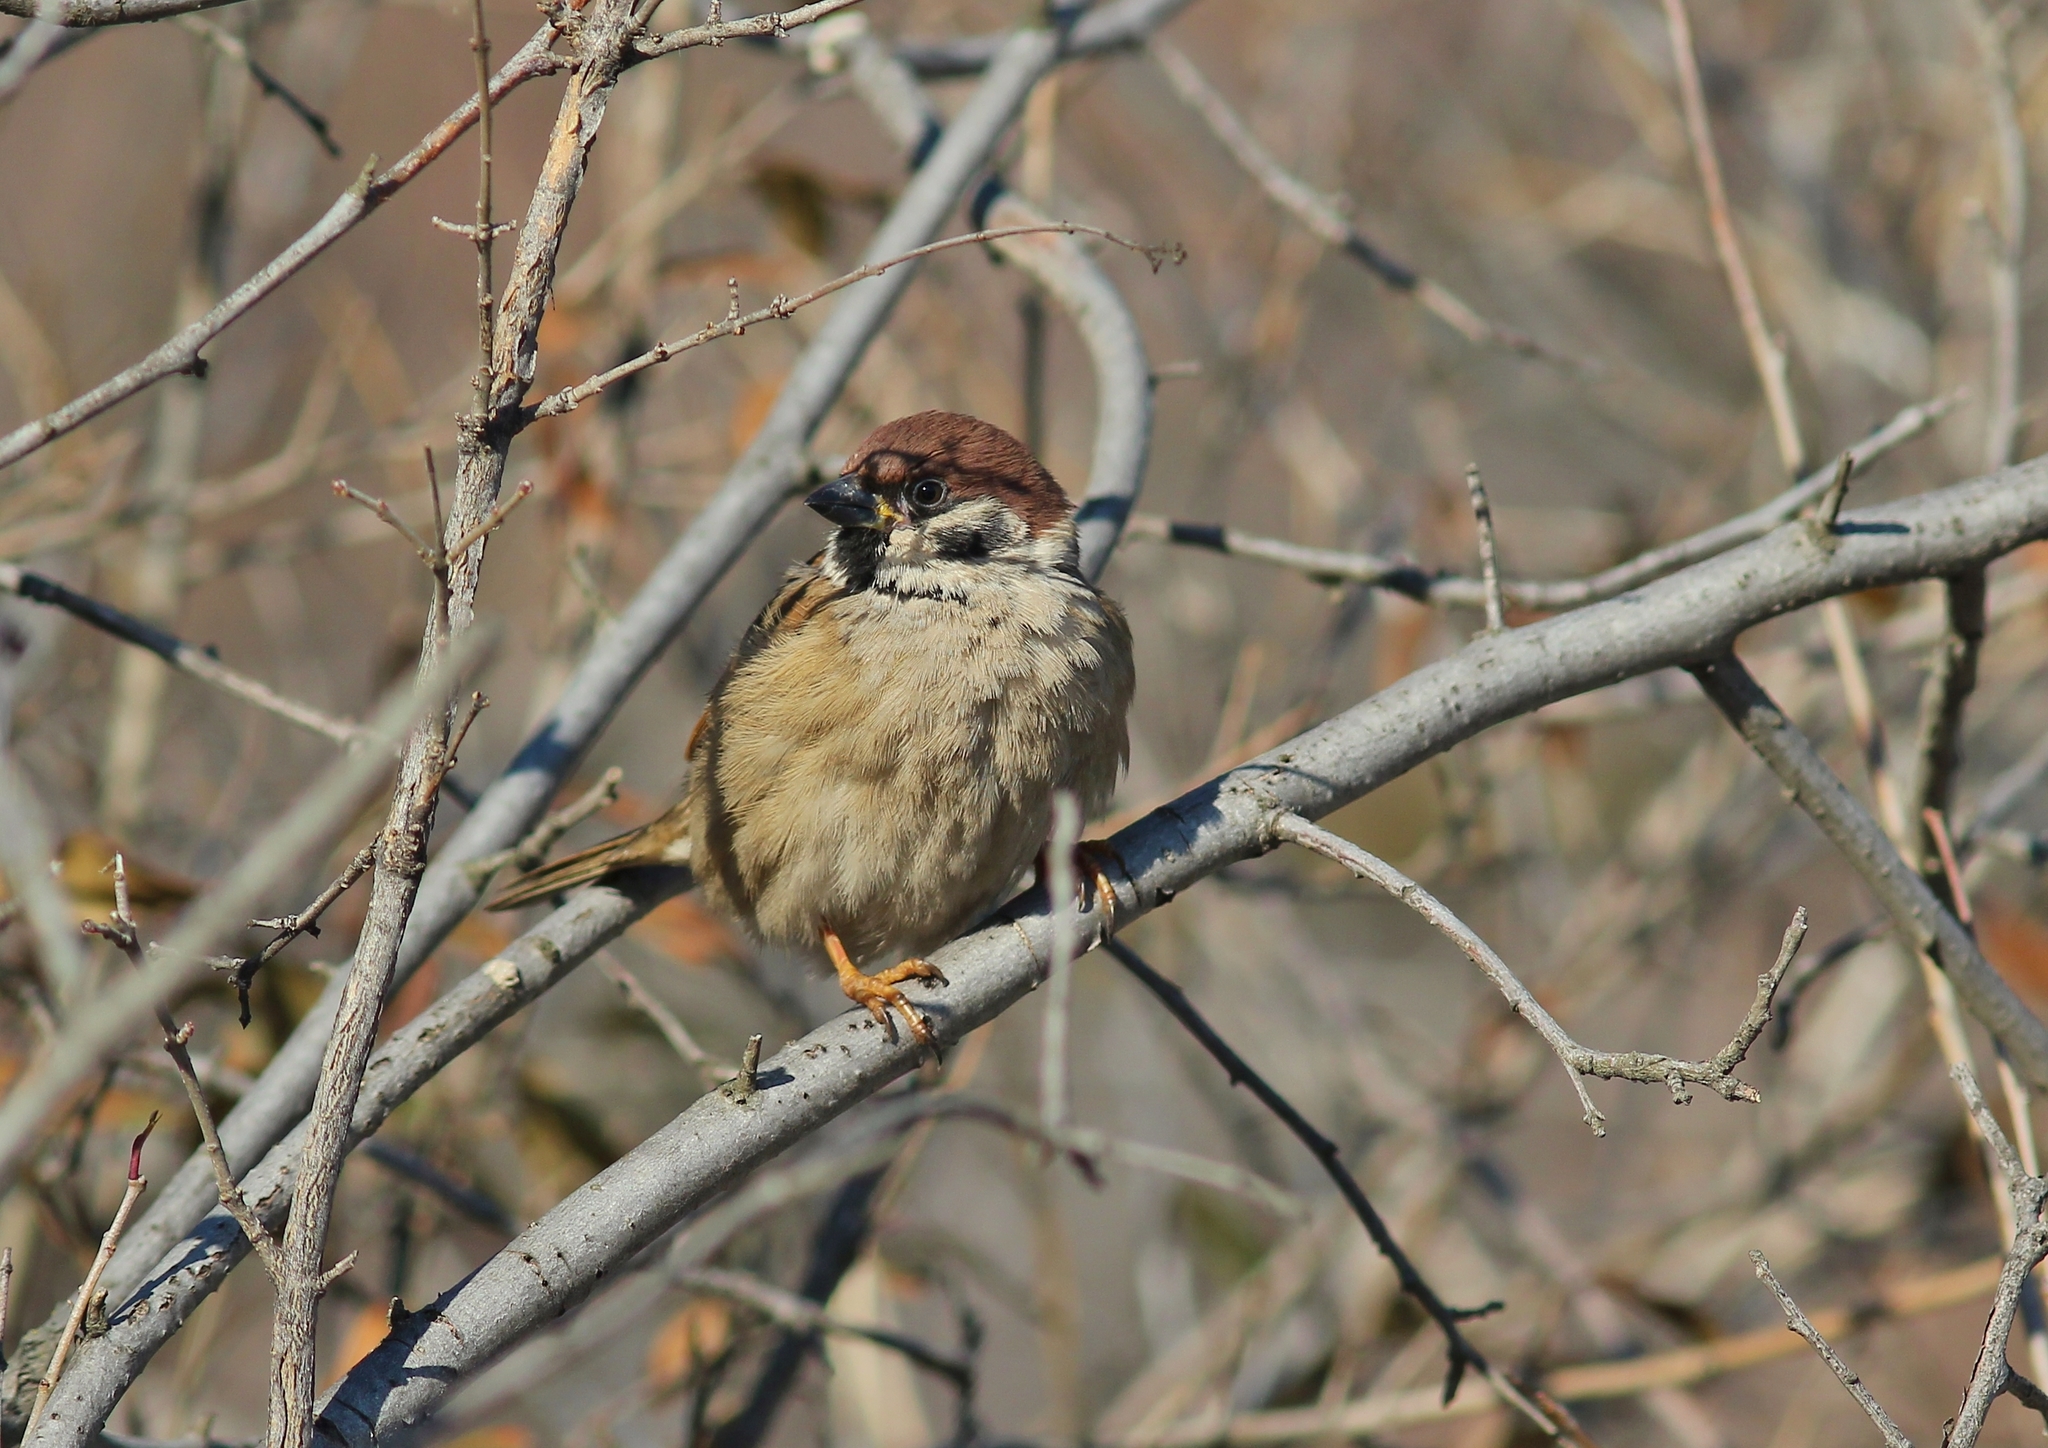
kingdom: Animalia
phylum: Chordata
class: Aves
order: Passeriformes
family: Passeridae
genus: Passer
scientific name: Passer montanus
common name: Eurasian tree sparrow
